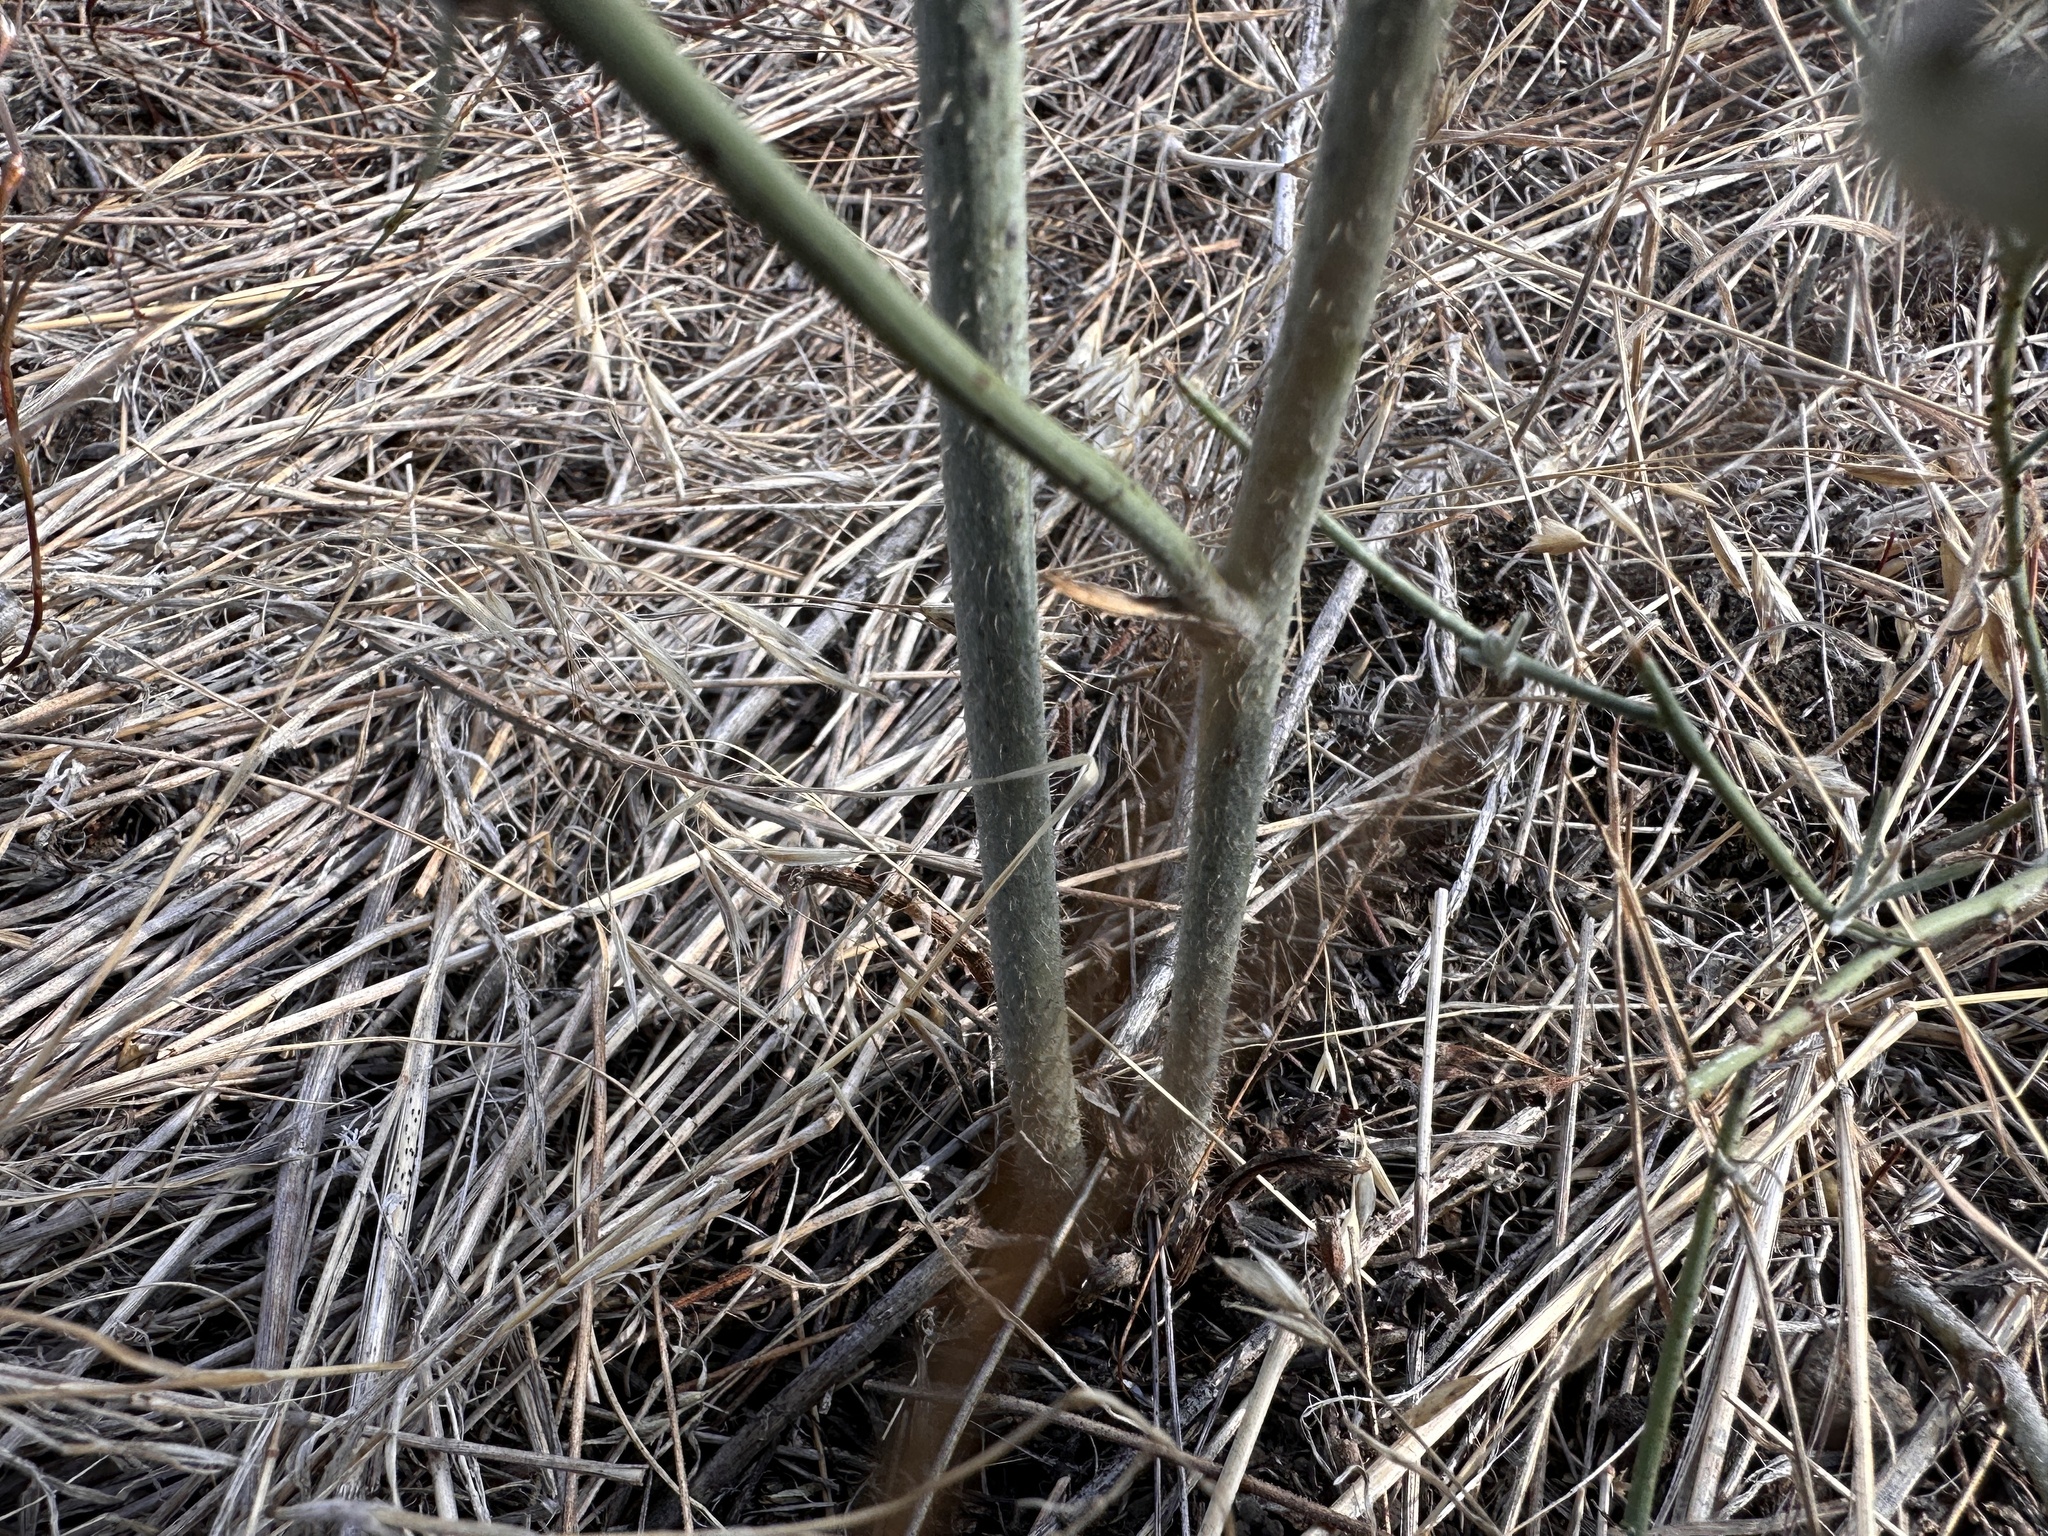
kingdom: Plantae
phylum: Tracheophyta
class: Magnoliopsida
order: Asterales
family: Asteraceae
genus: Chondrilla
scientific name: Chondrilla juncea
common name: Skeleton weed
